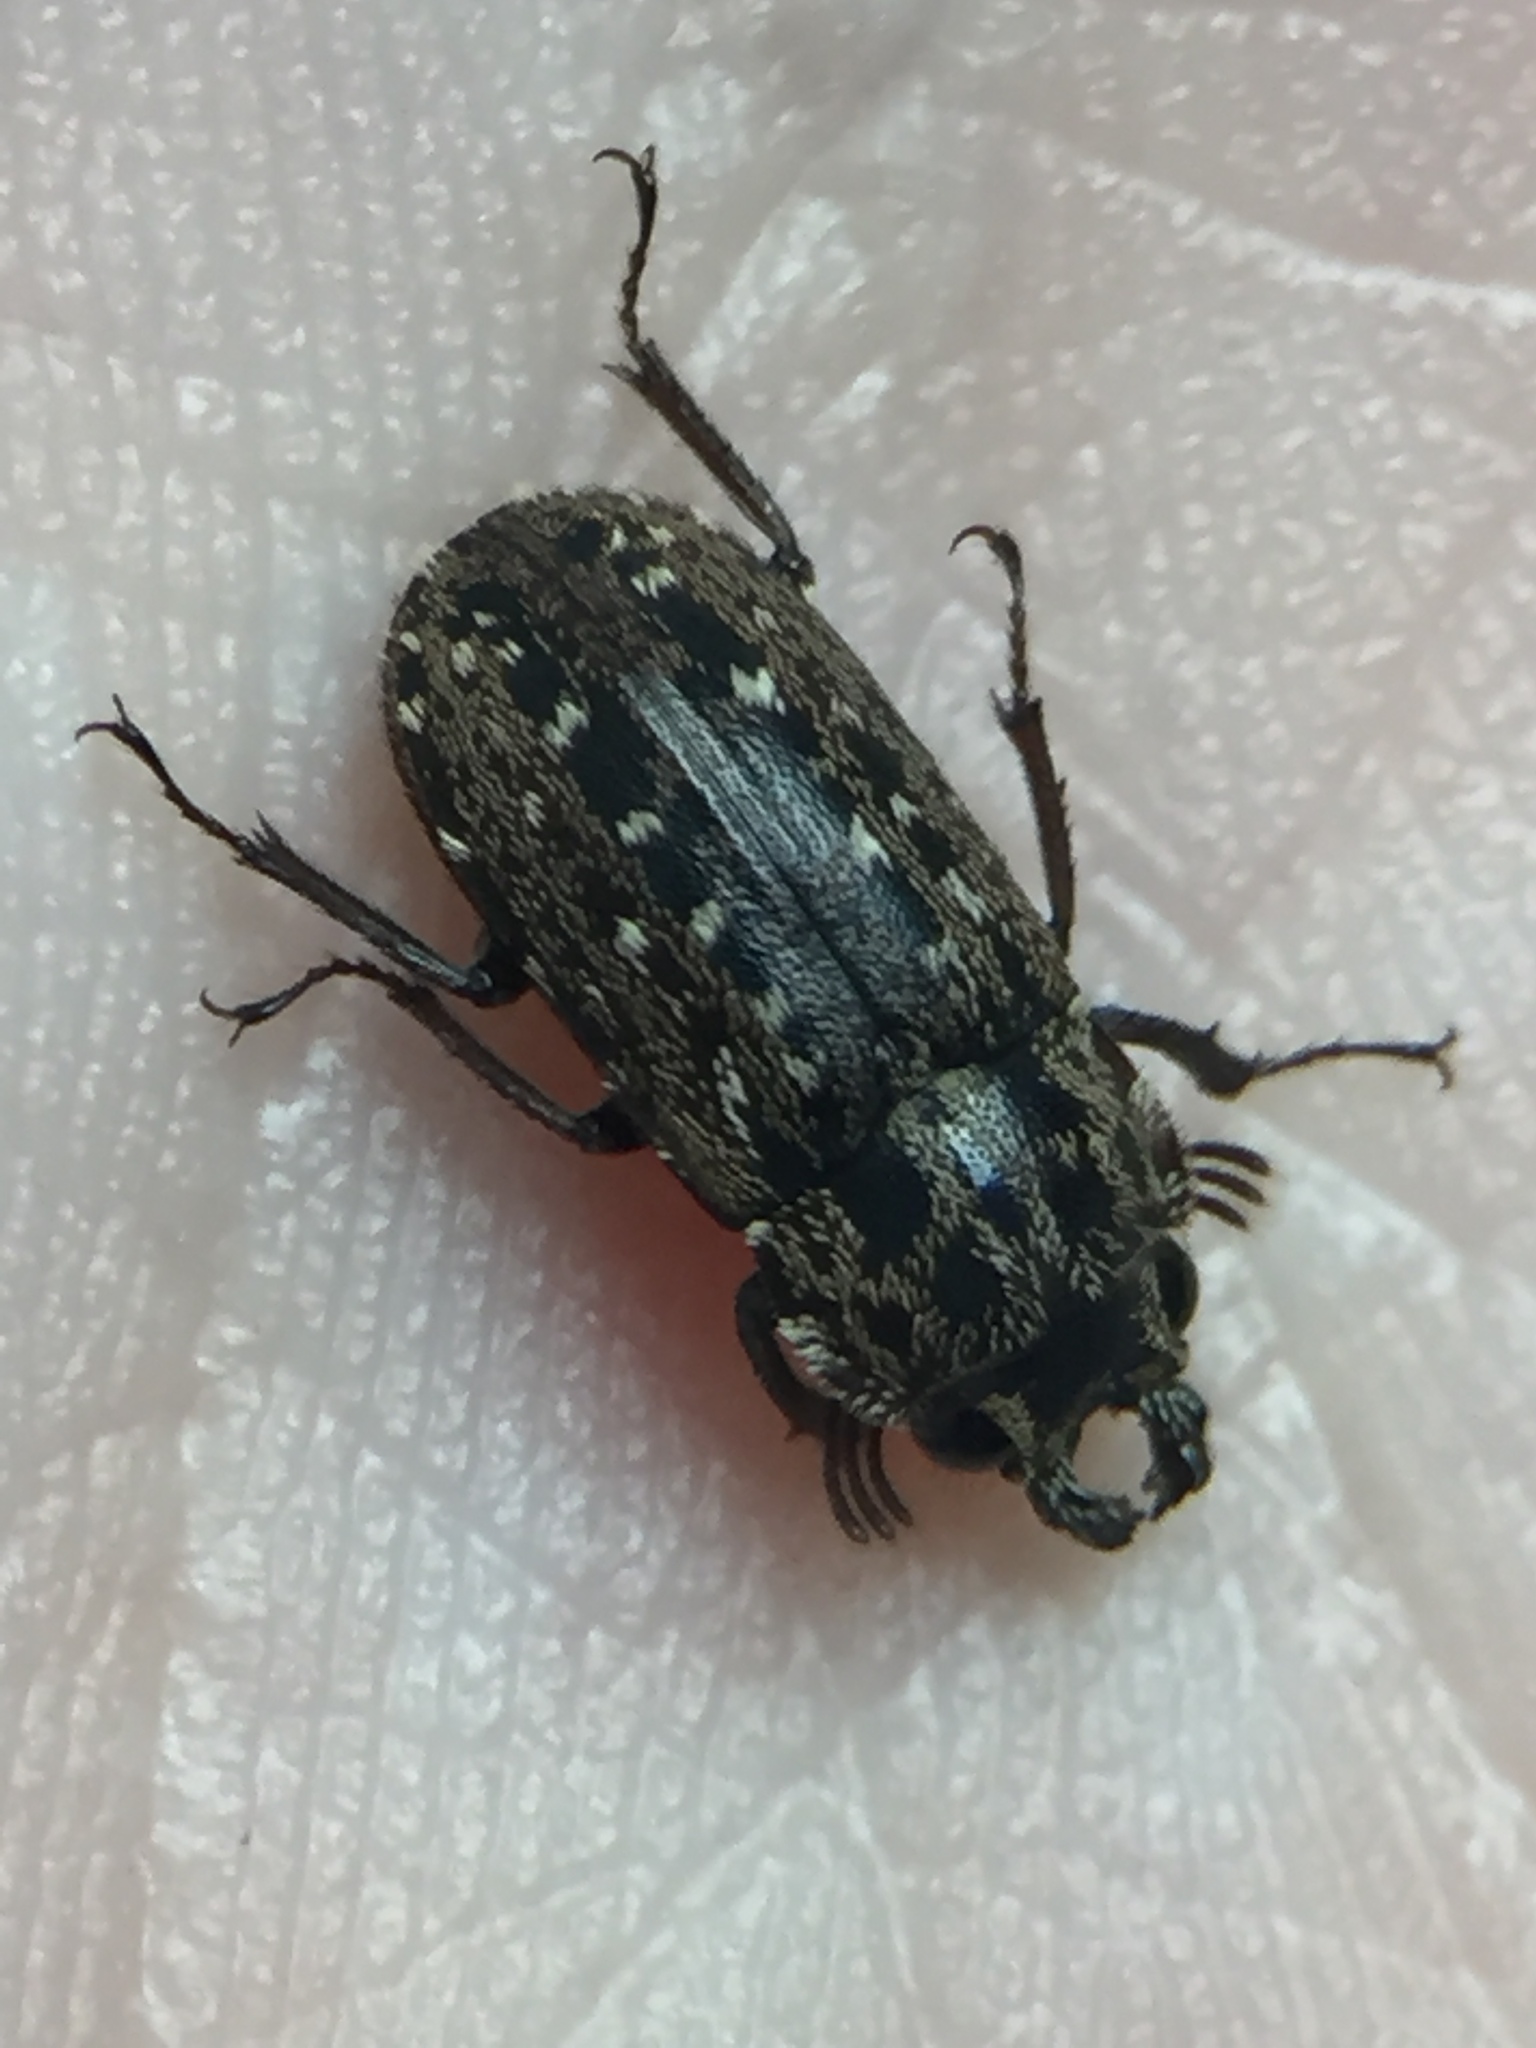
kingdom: Animalia
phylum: Arthropoda
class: Insecta
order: Coleoptera
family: Lucanidae
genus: Mitophyllus
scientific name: Mitophyllus arcuatus
